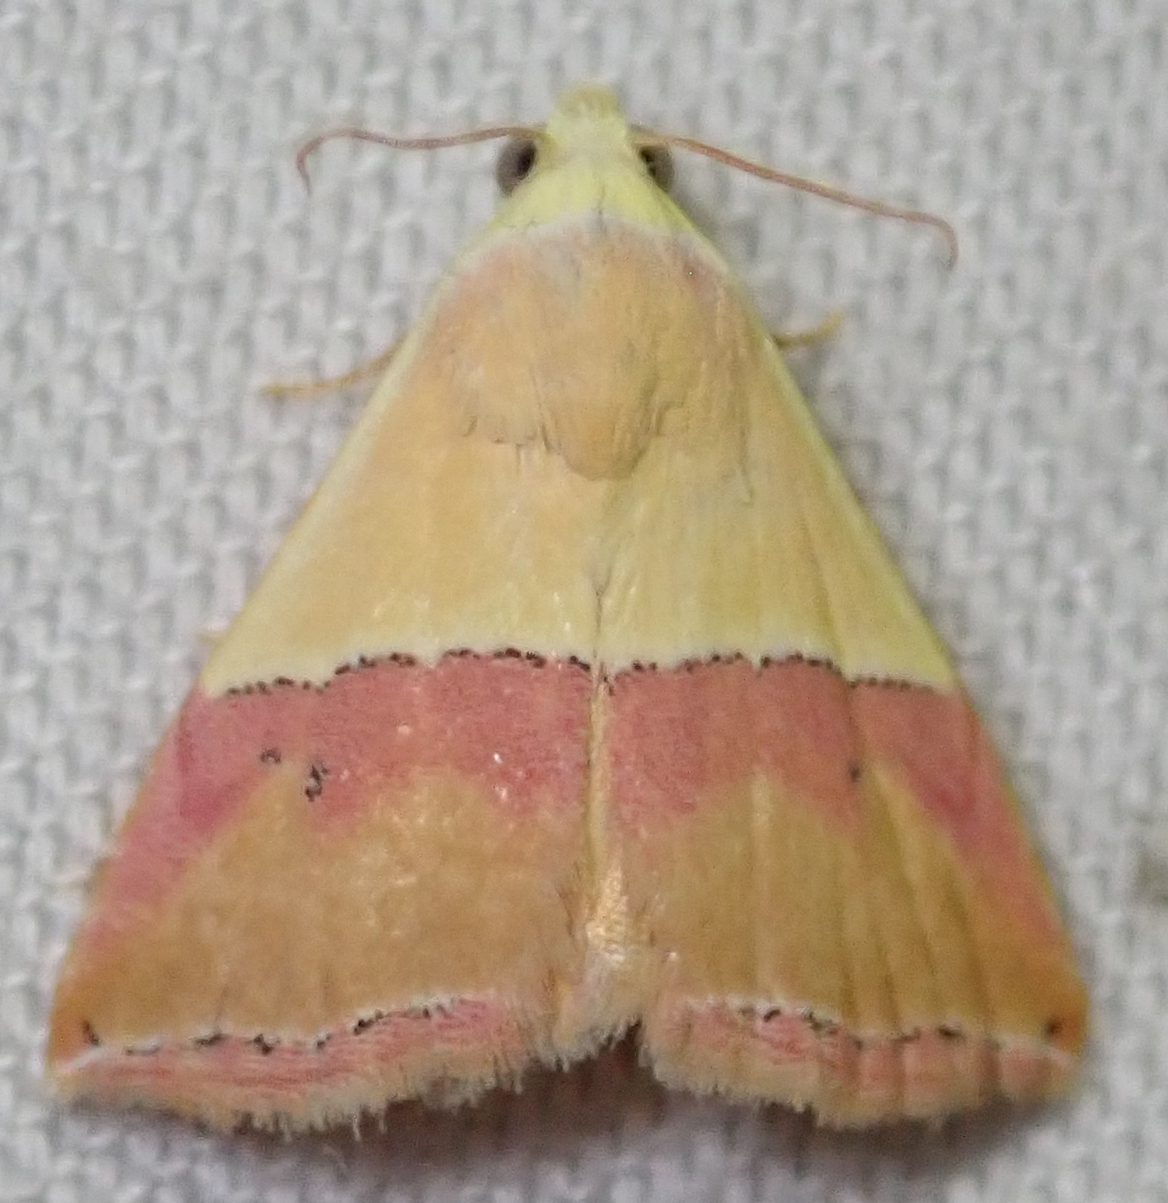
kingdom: Animalia
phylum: Arthropoda
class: Insecta
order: Lepidoptera
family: Noctuidae
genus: Eublemma
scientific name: Eublemma caffrorum
